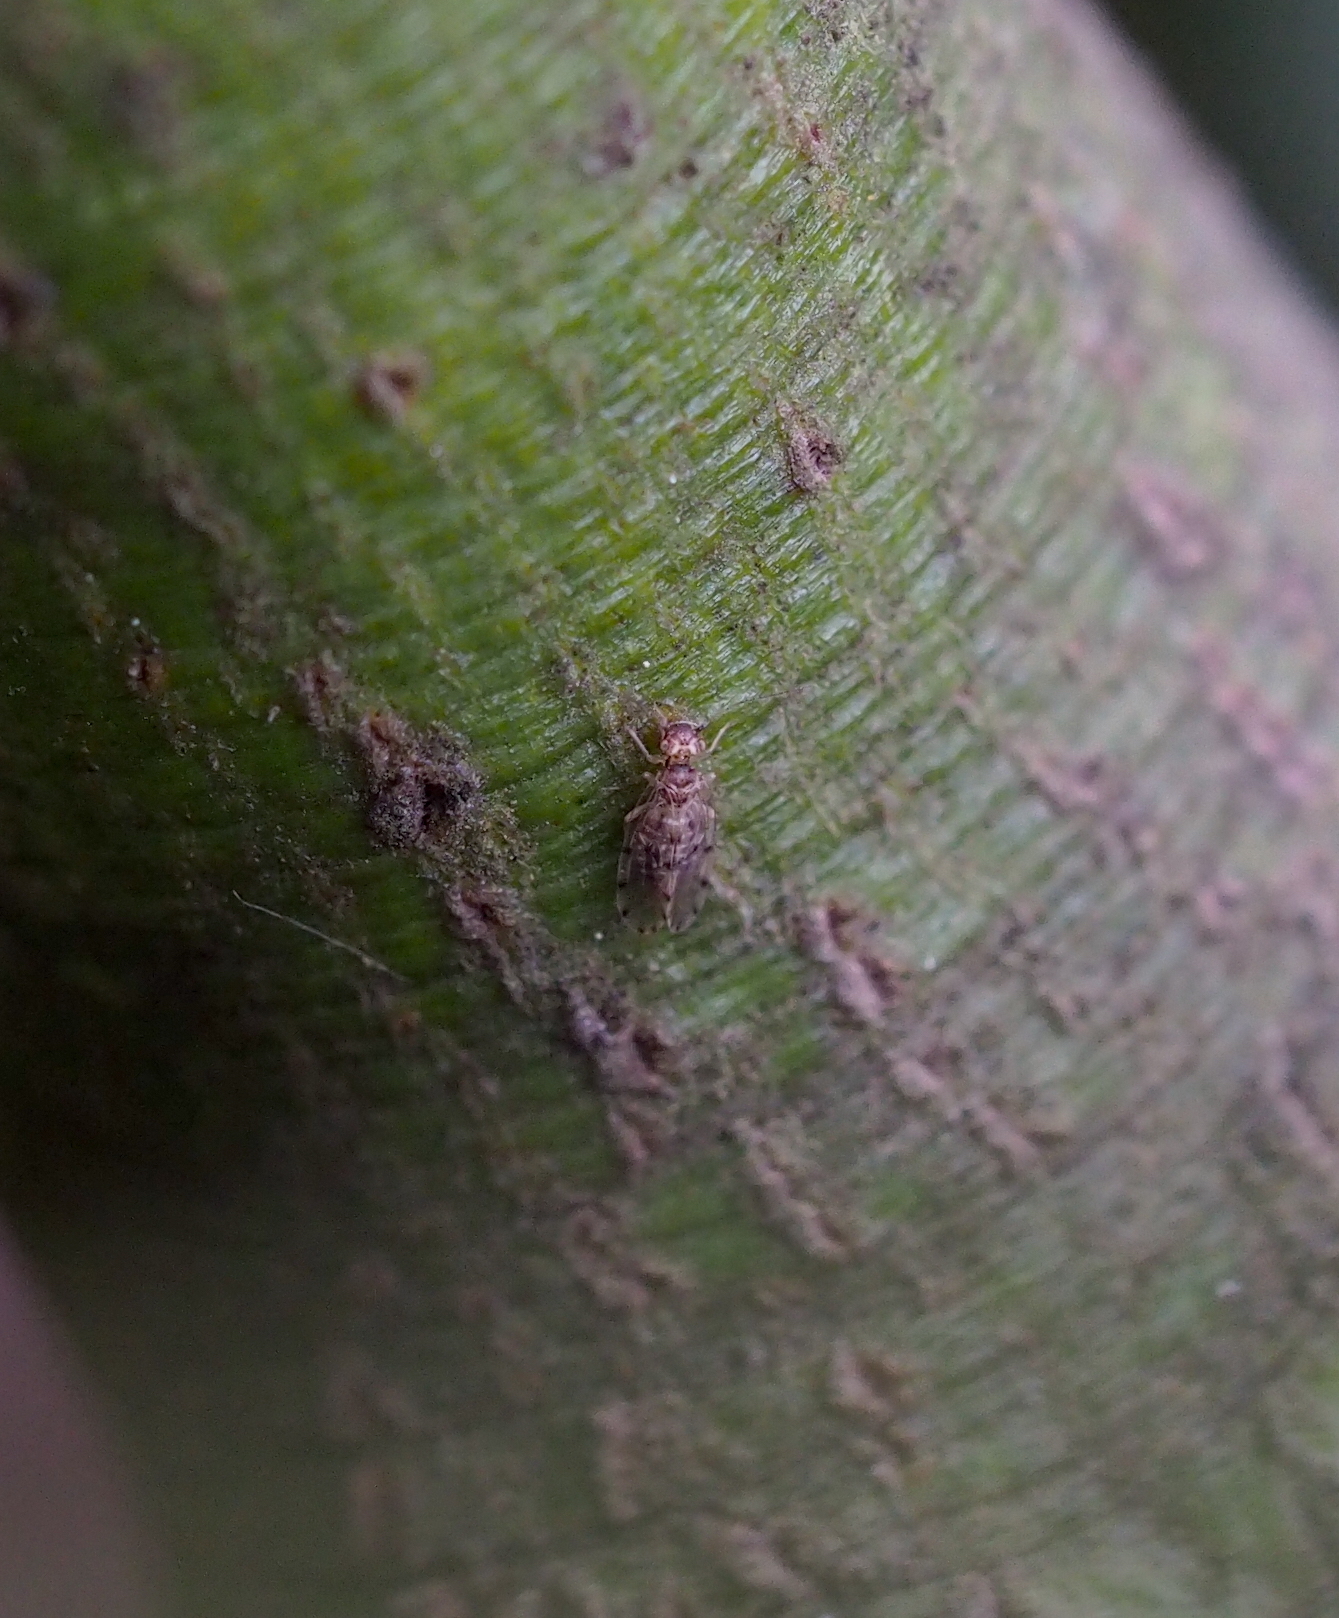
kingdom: Animalia
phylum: Arthropoda
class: Insecta
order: Psocodea
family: Ectopsocidae
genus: Ectopsocus
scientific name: Ectopsocus petersi
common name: Medium-sized bark louse
